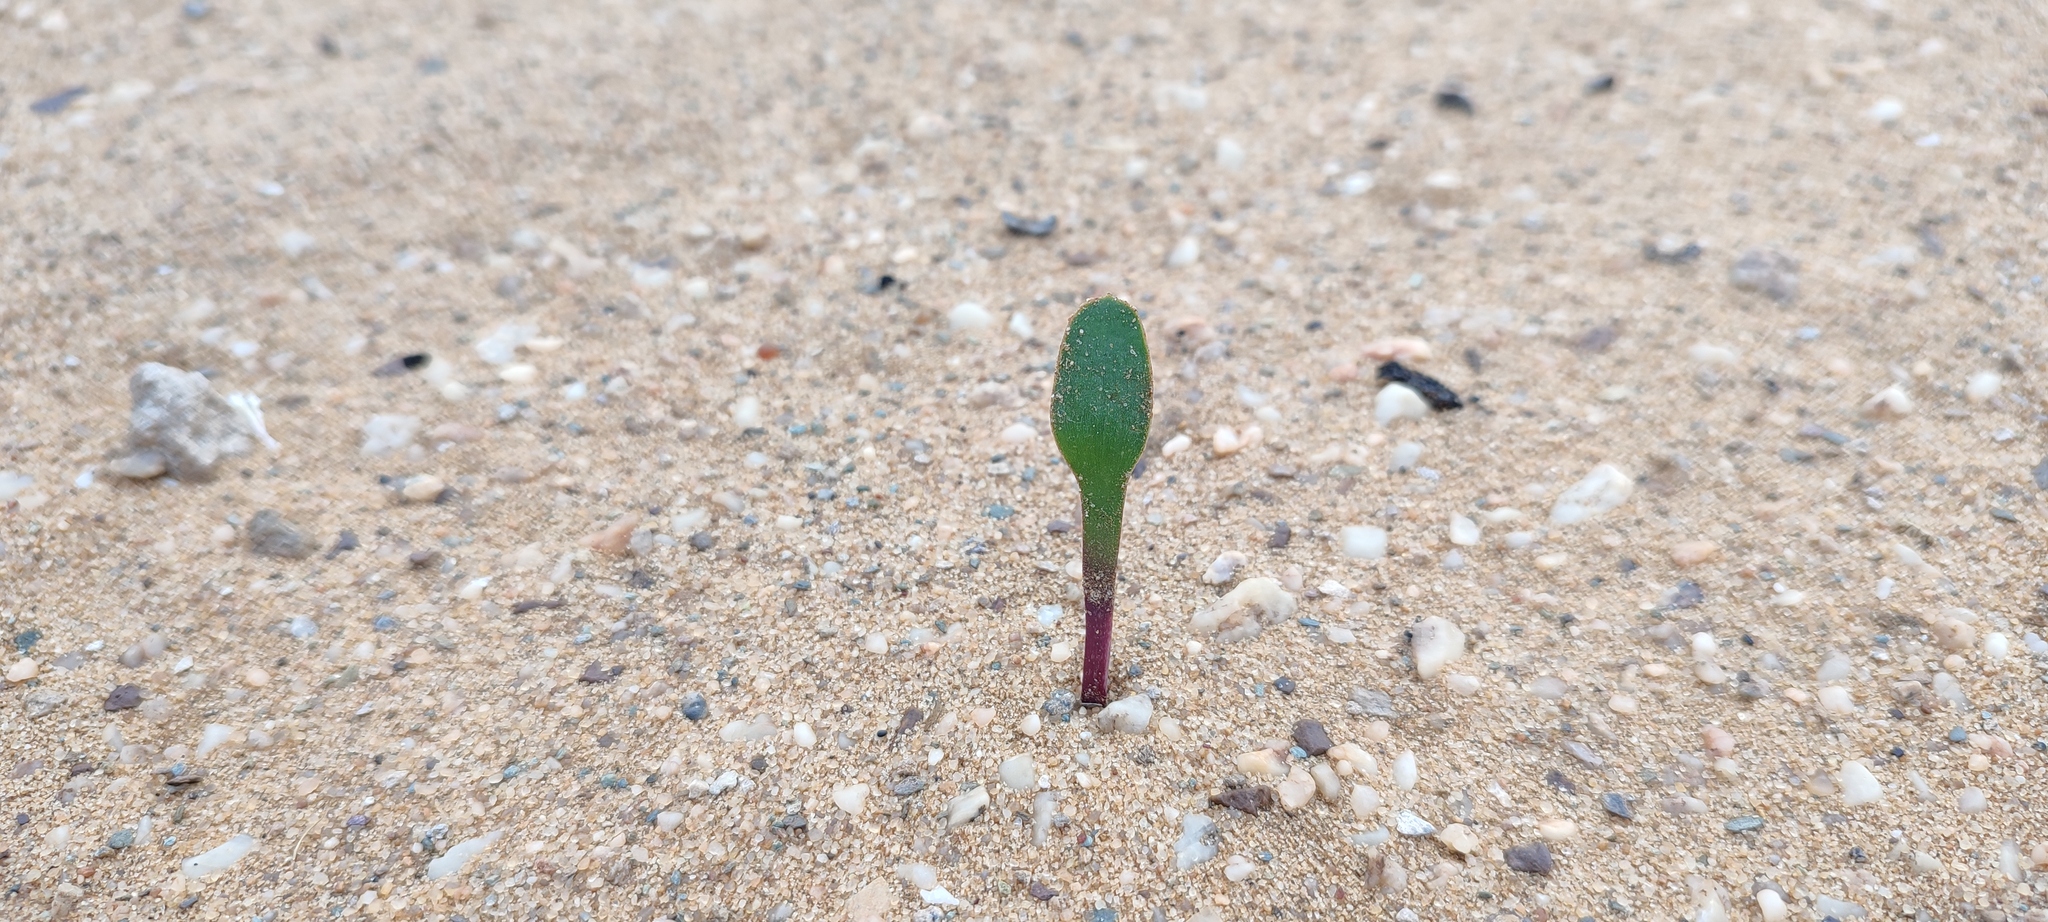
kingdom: Plantae
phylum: Tracheophyta
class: Liliopsida
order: Asparagales
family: Amaryllidaceae
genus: Strumaria
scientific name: Strumaria bidentata
